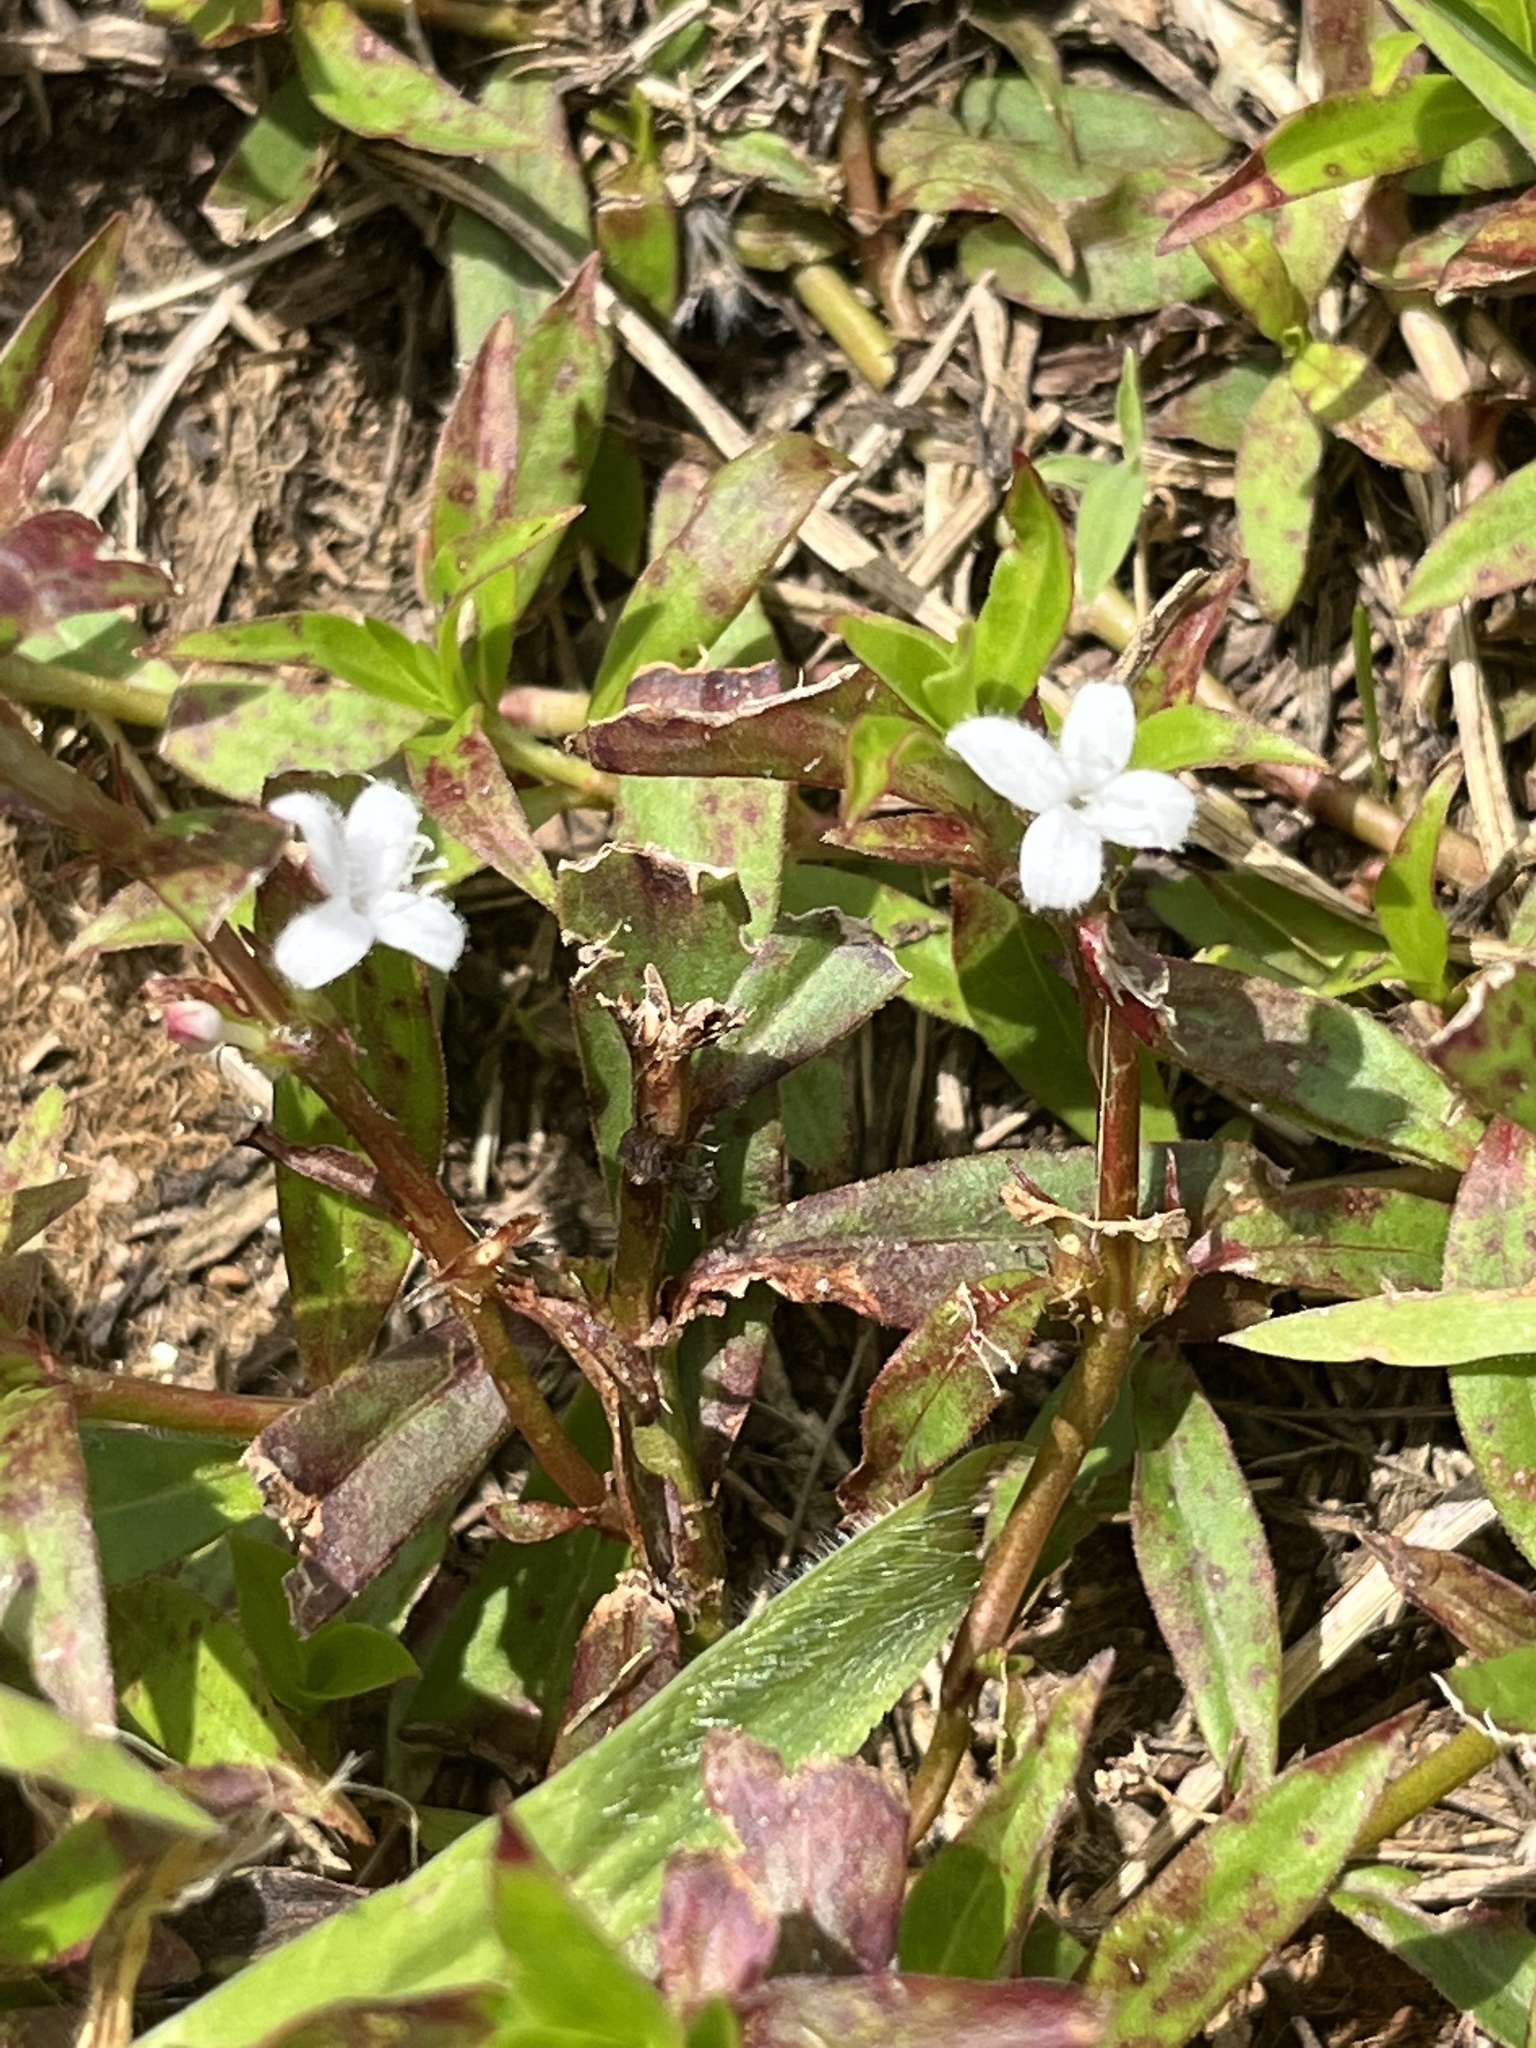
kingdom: Plantae
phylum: Tracheophyta
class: Magnoliopsida
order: Gentianales
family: Rubiaceae
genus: Diodia
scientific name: Diodia virginiana
